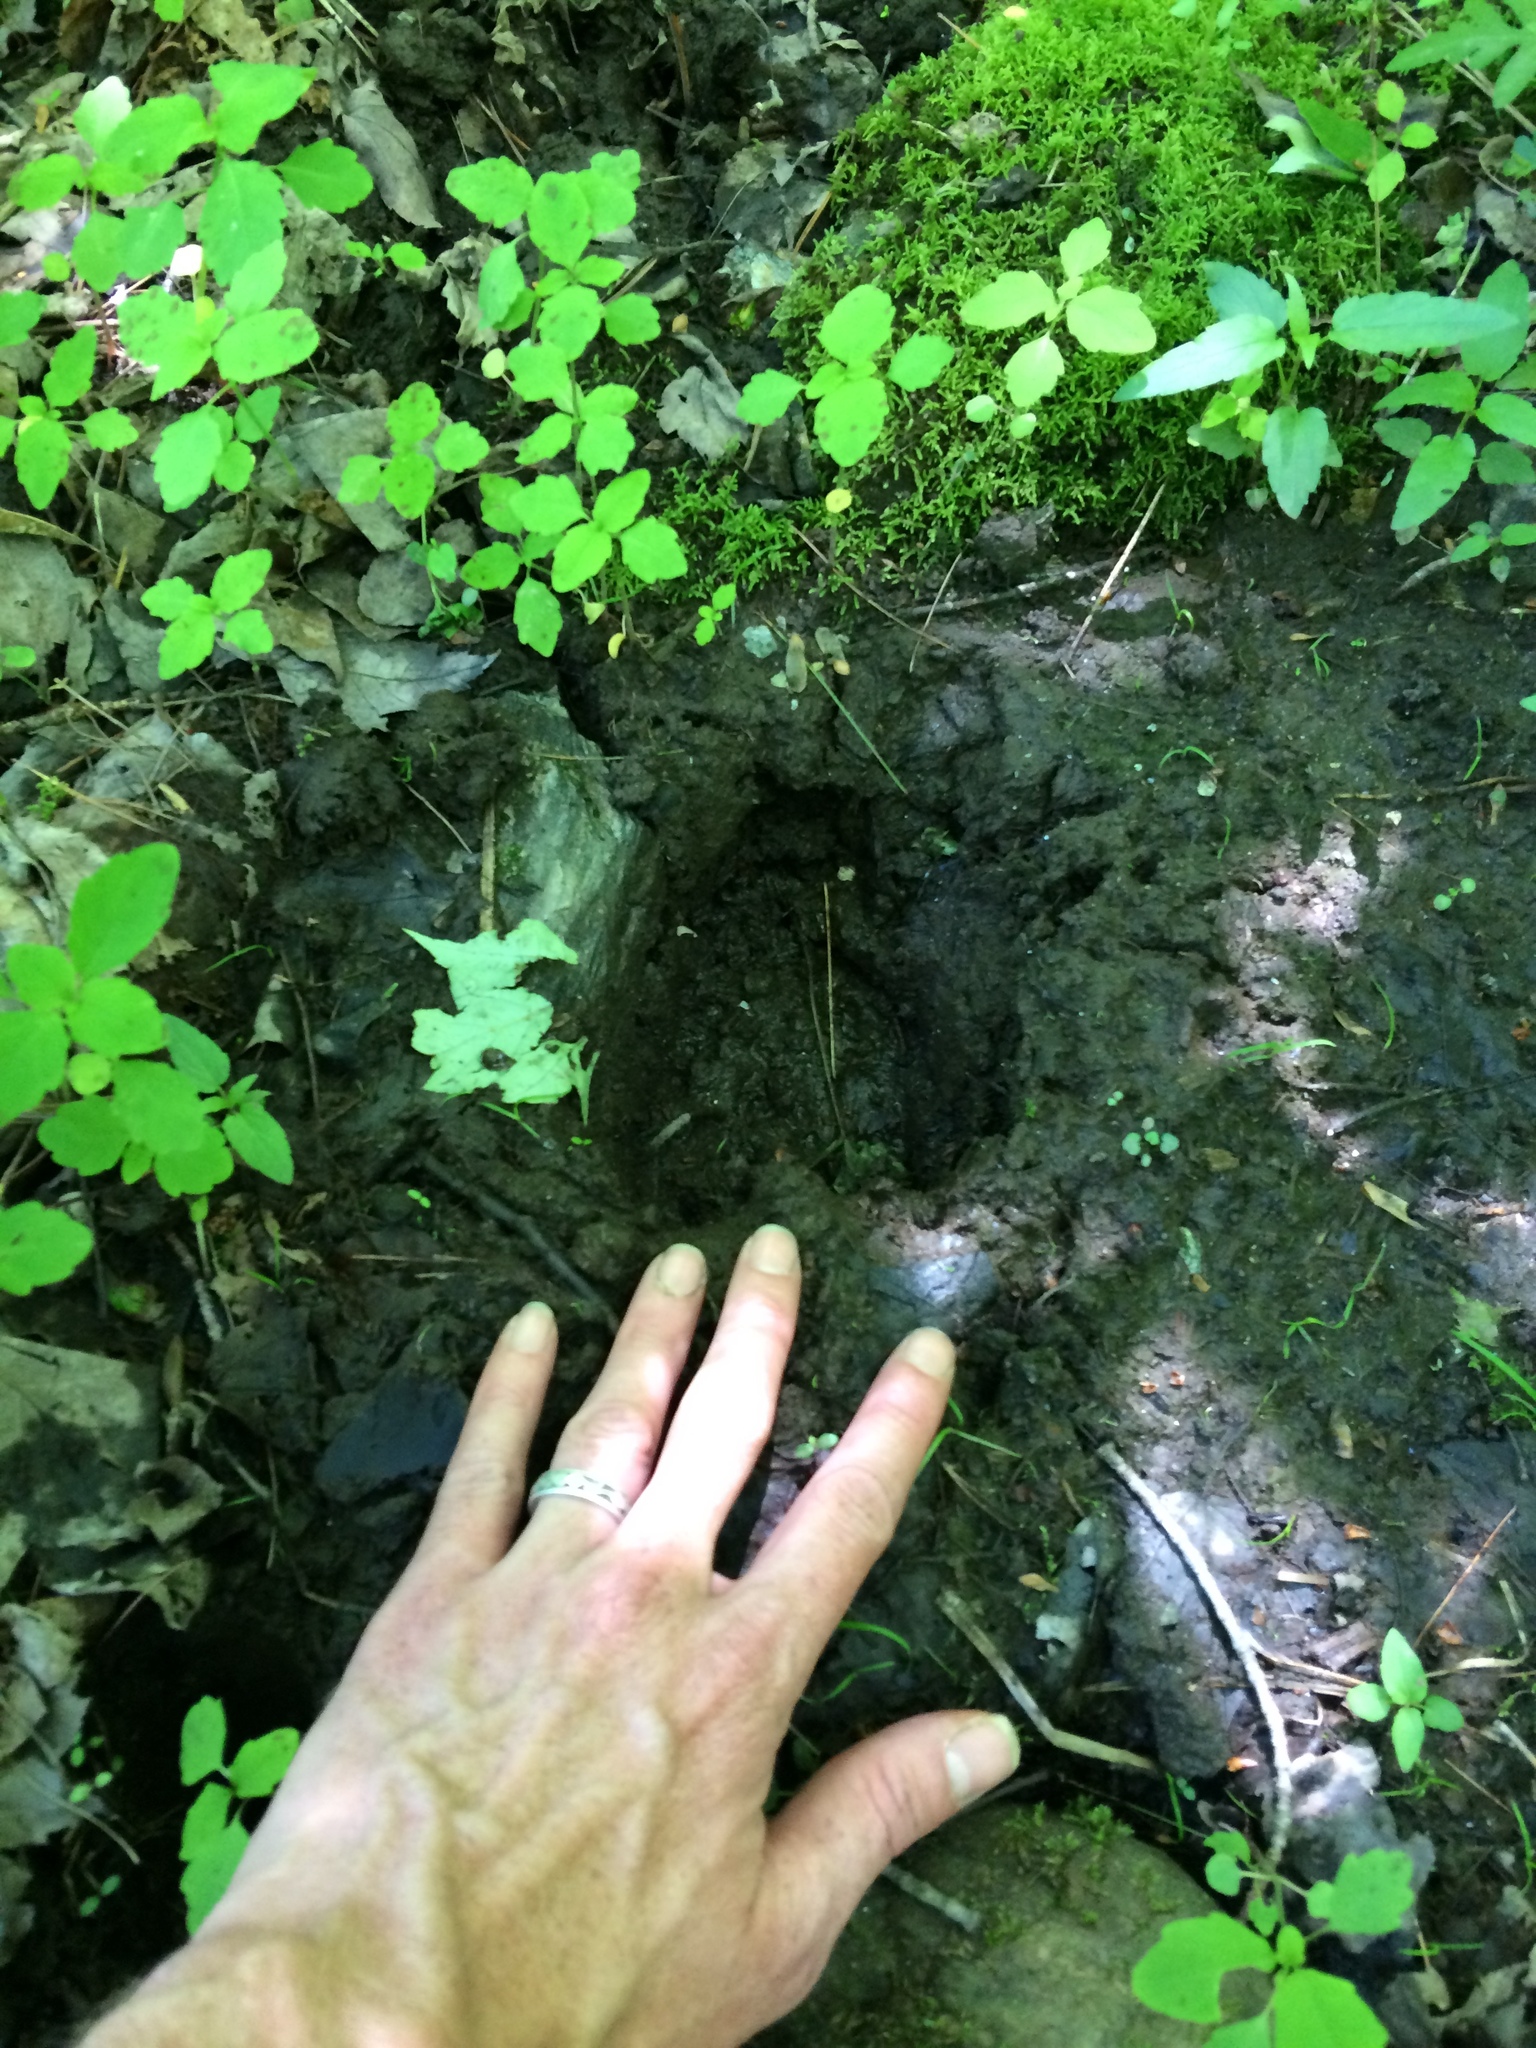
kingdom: Animalia
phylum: Chordata
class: Mammalia
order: Artiodactyla
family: Cervidae
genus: Alces
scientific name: Alces alces
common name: Moose
